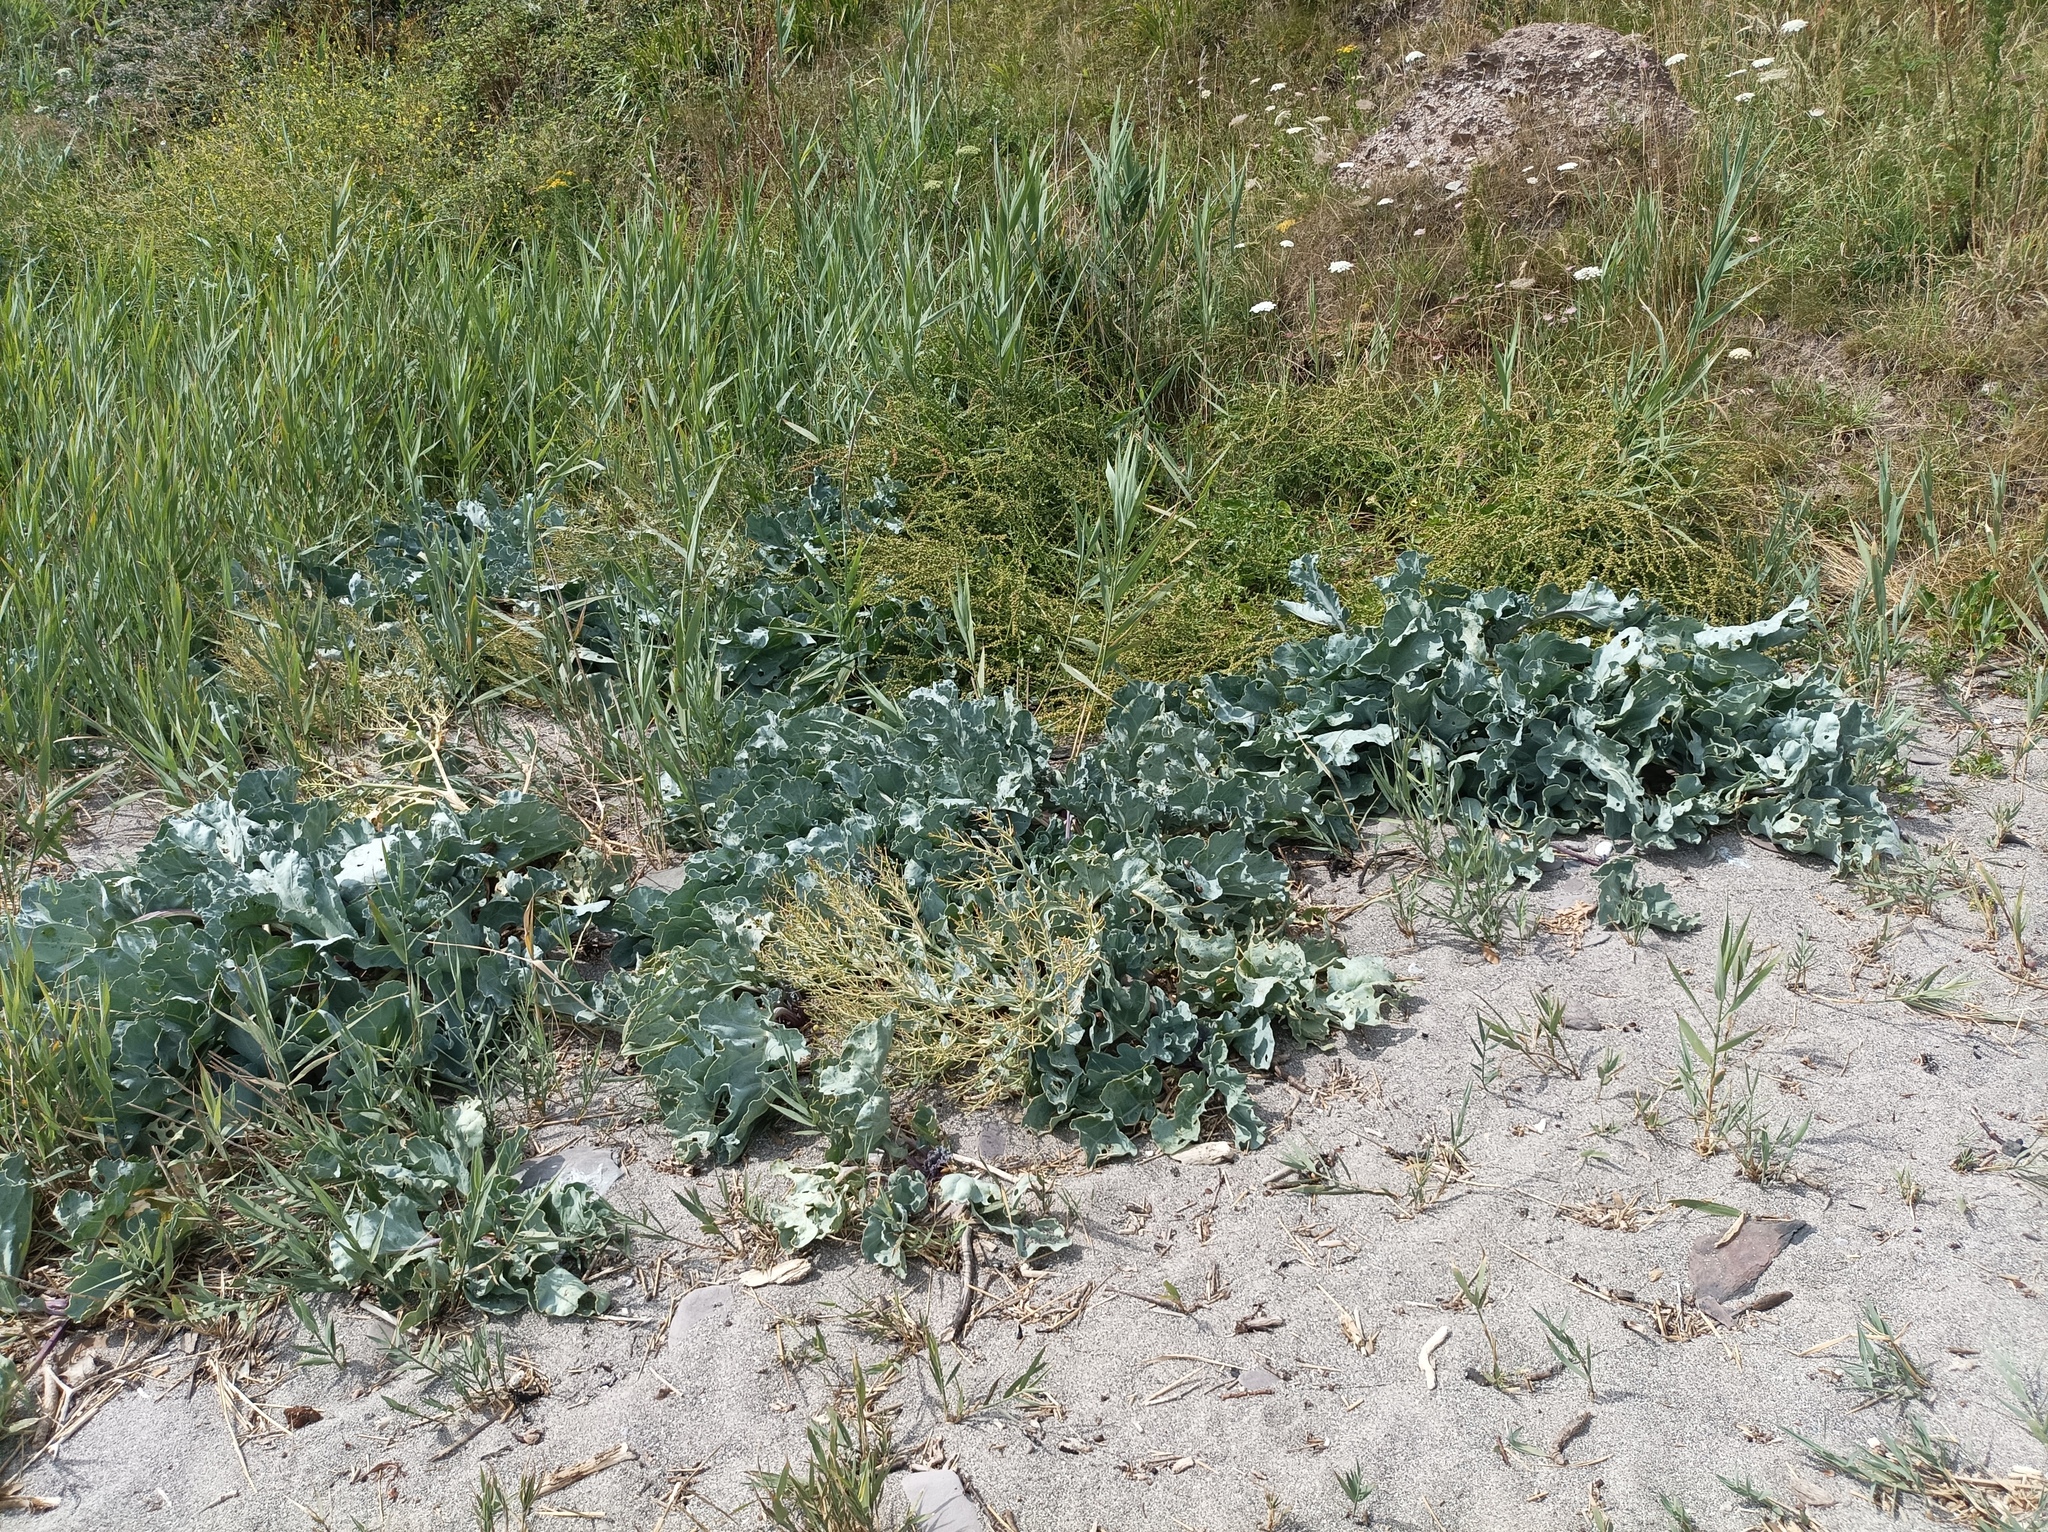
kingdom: Plantae
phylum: Tracheophyta
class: Magnoliopsida
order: Brassicales
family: Brassicaceae
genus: Crambe
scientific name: Crambe maritima
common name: Sea-kale
